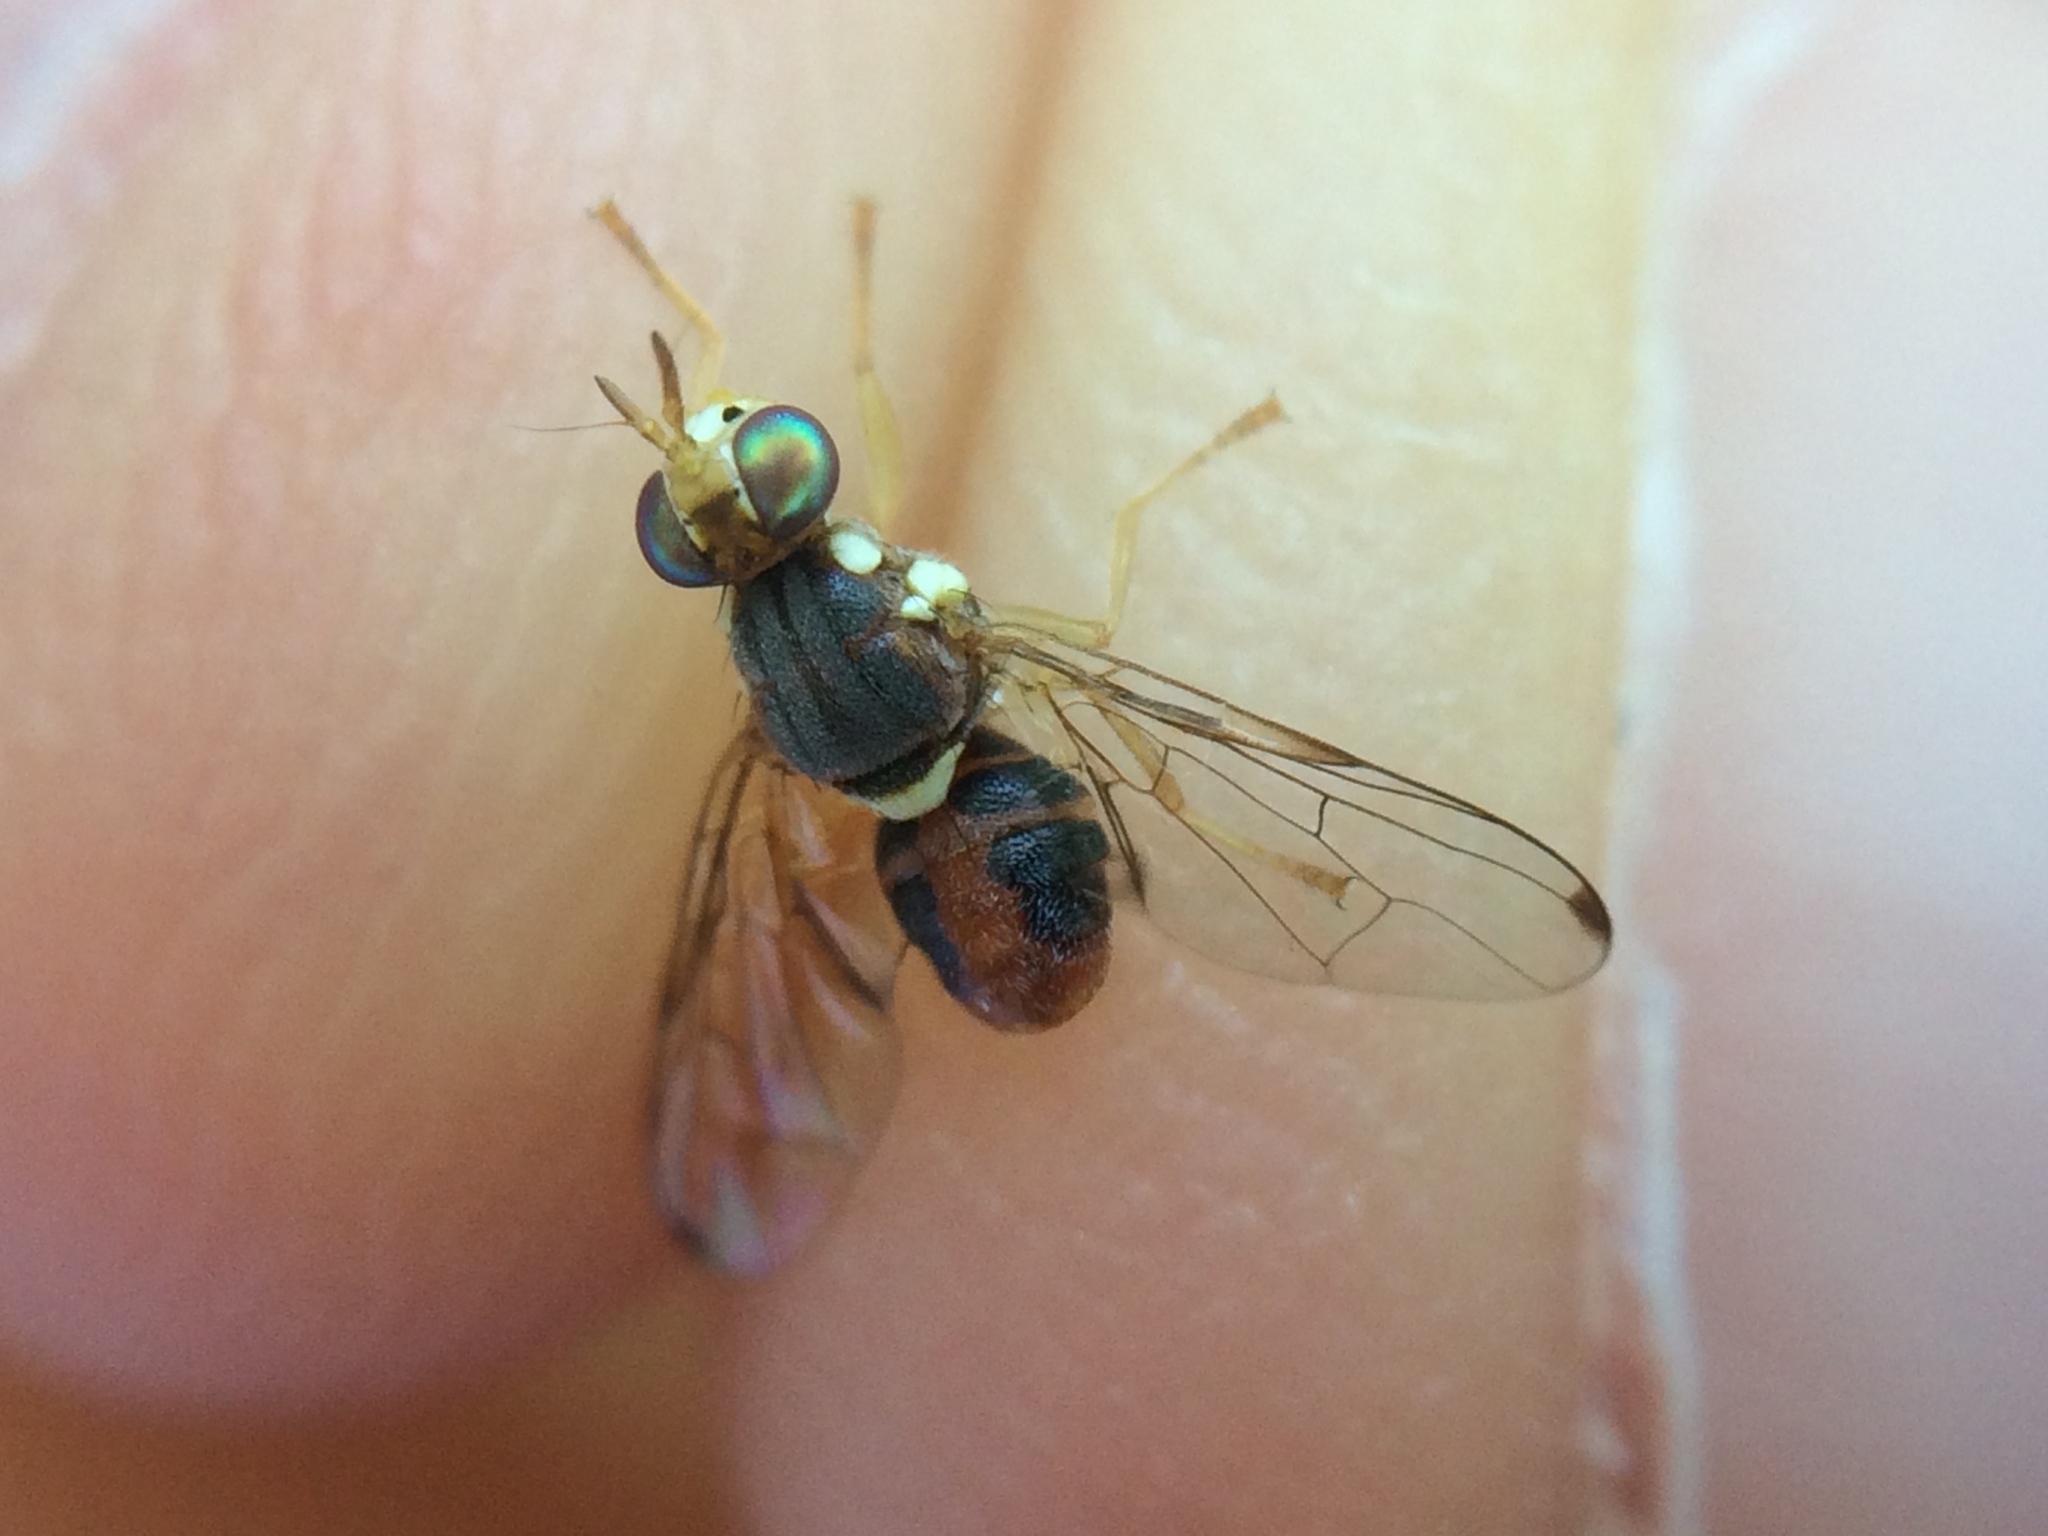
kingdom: Animalia
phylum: Arthropoda
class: Insecta
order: Diptera
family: Tephritidae
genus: Bactrocera
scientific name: Bactrocera oleae
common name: Olive fruit fly
